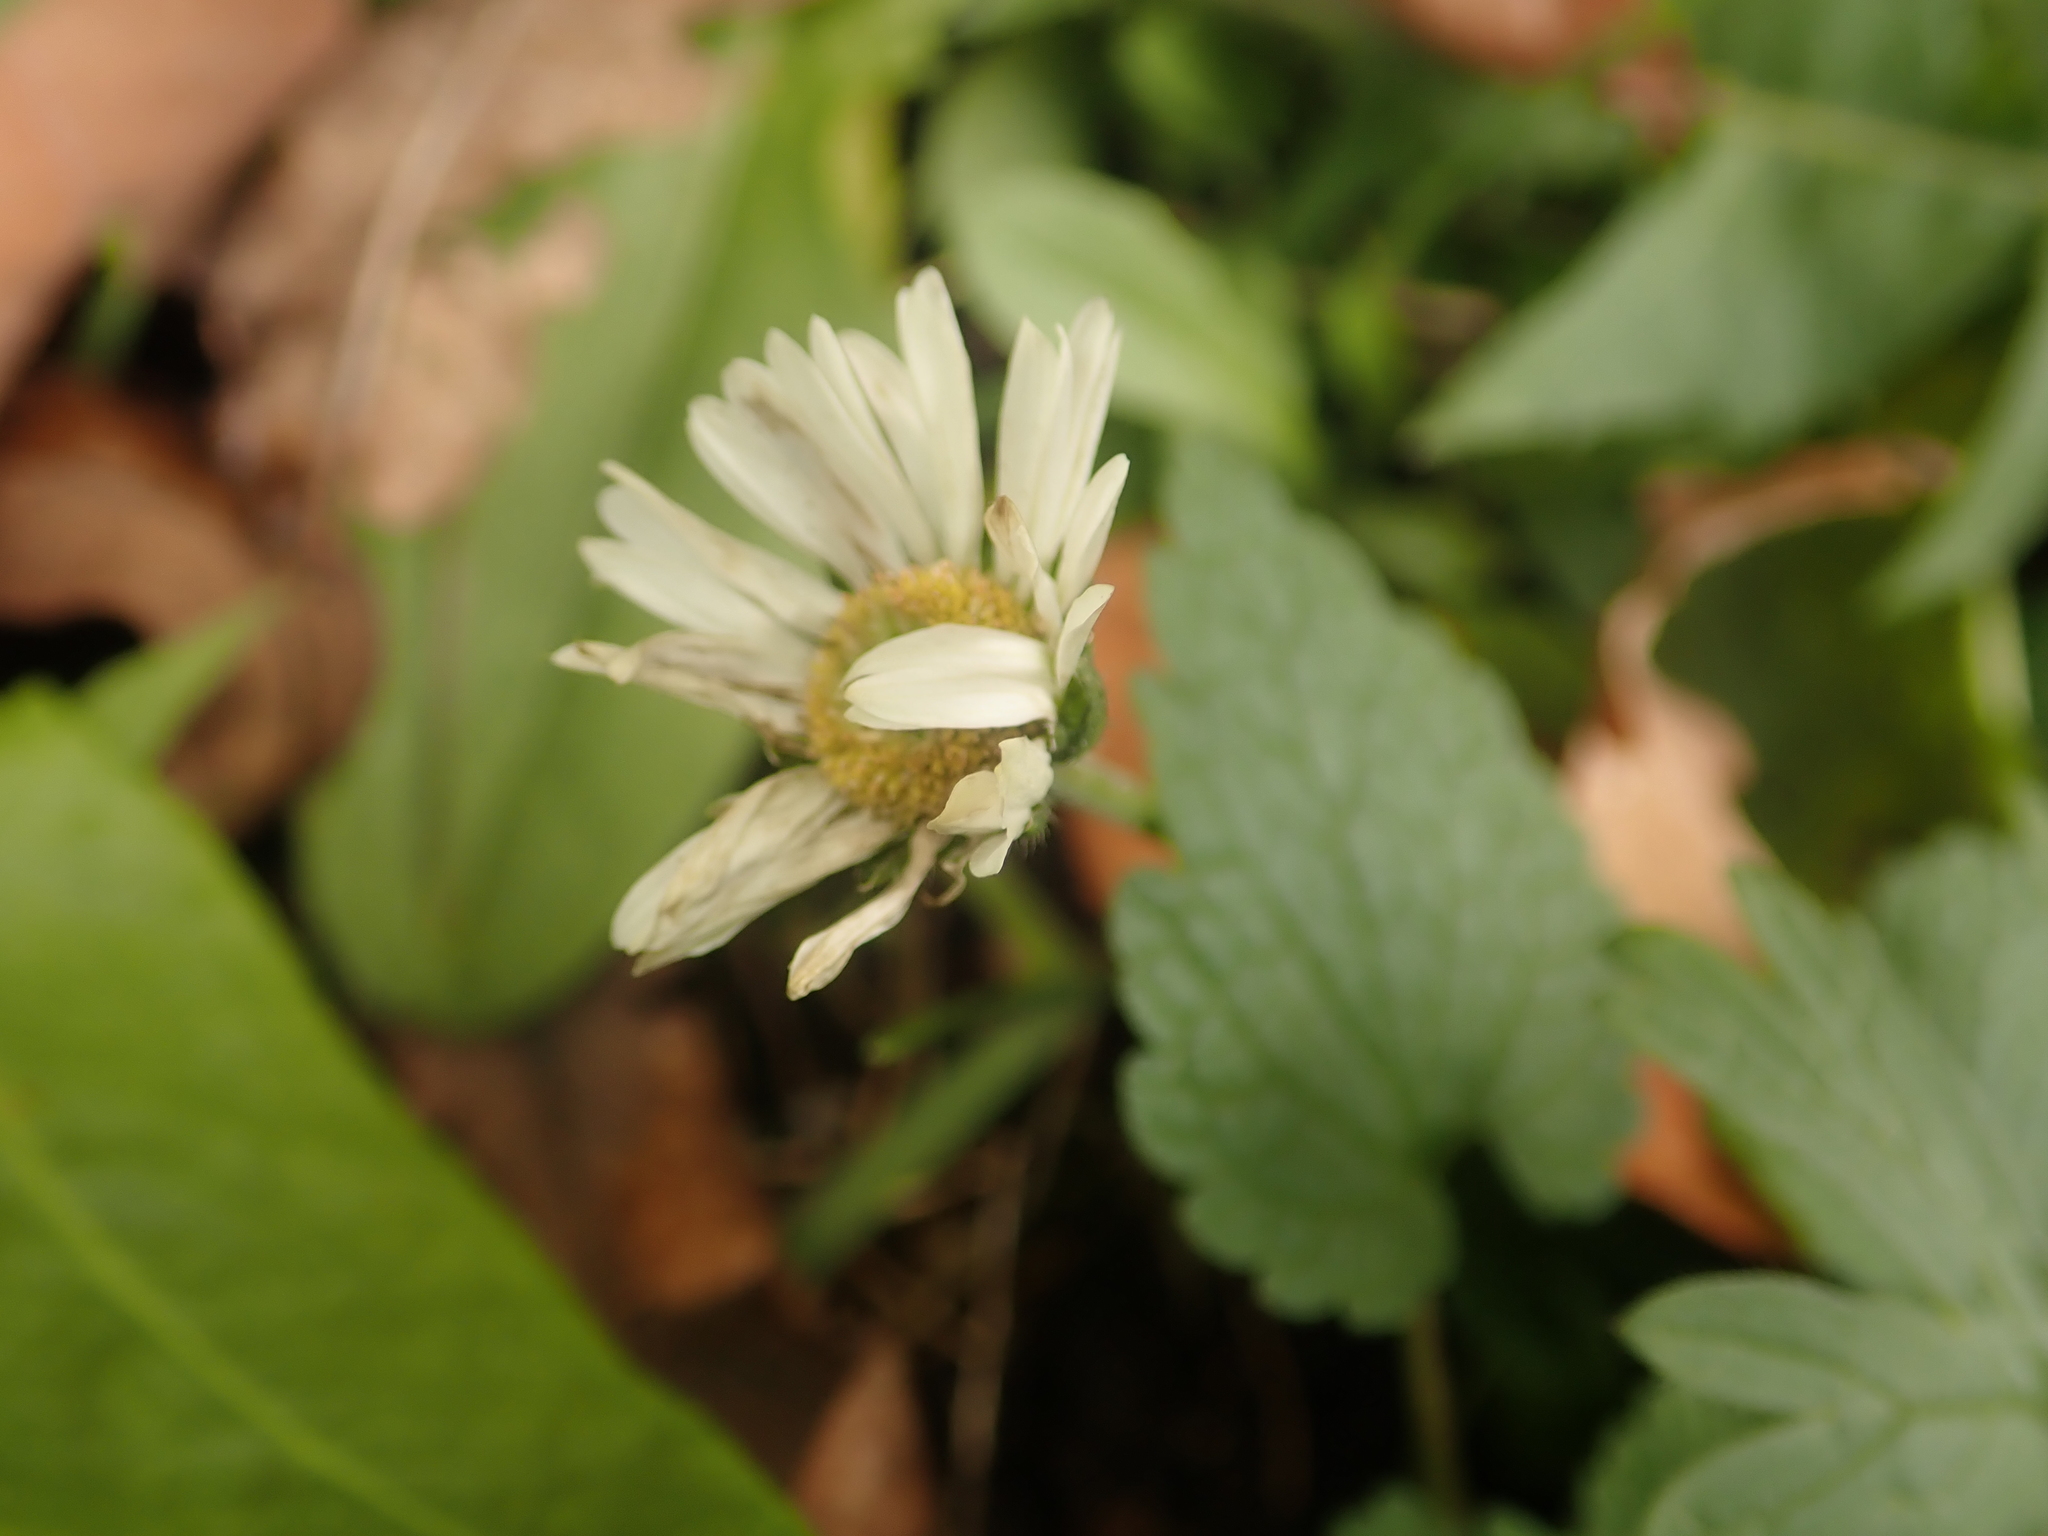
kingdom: Plantae
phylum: Tracheophyta
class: Magnoliopsida
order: Asterales
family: Asteraceae
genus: Bellis
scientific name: Bellis perennis
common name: Lawndaisy
